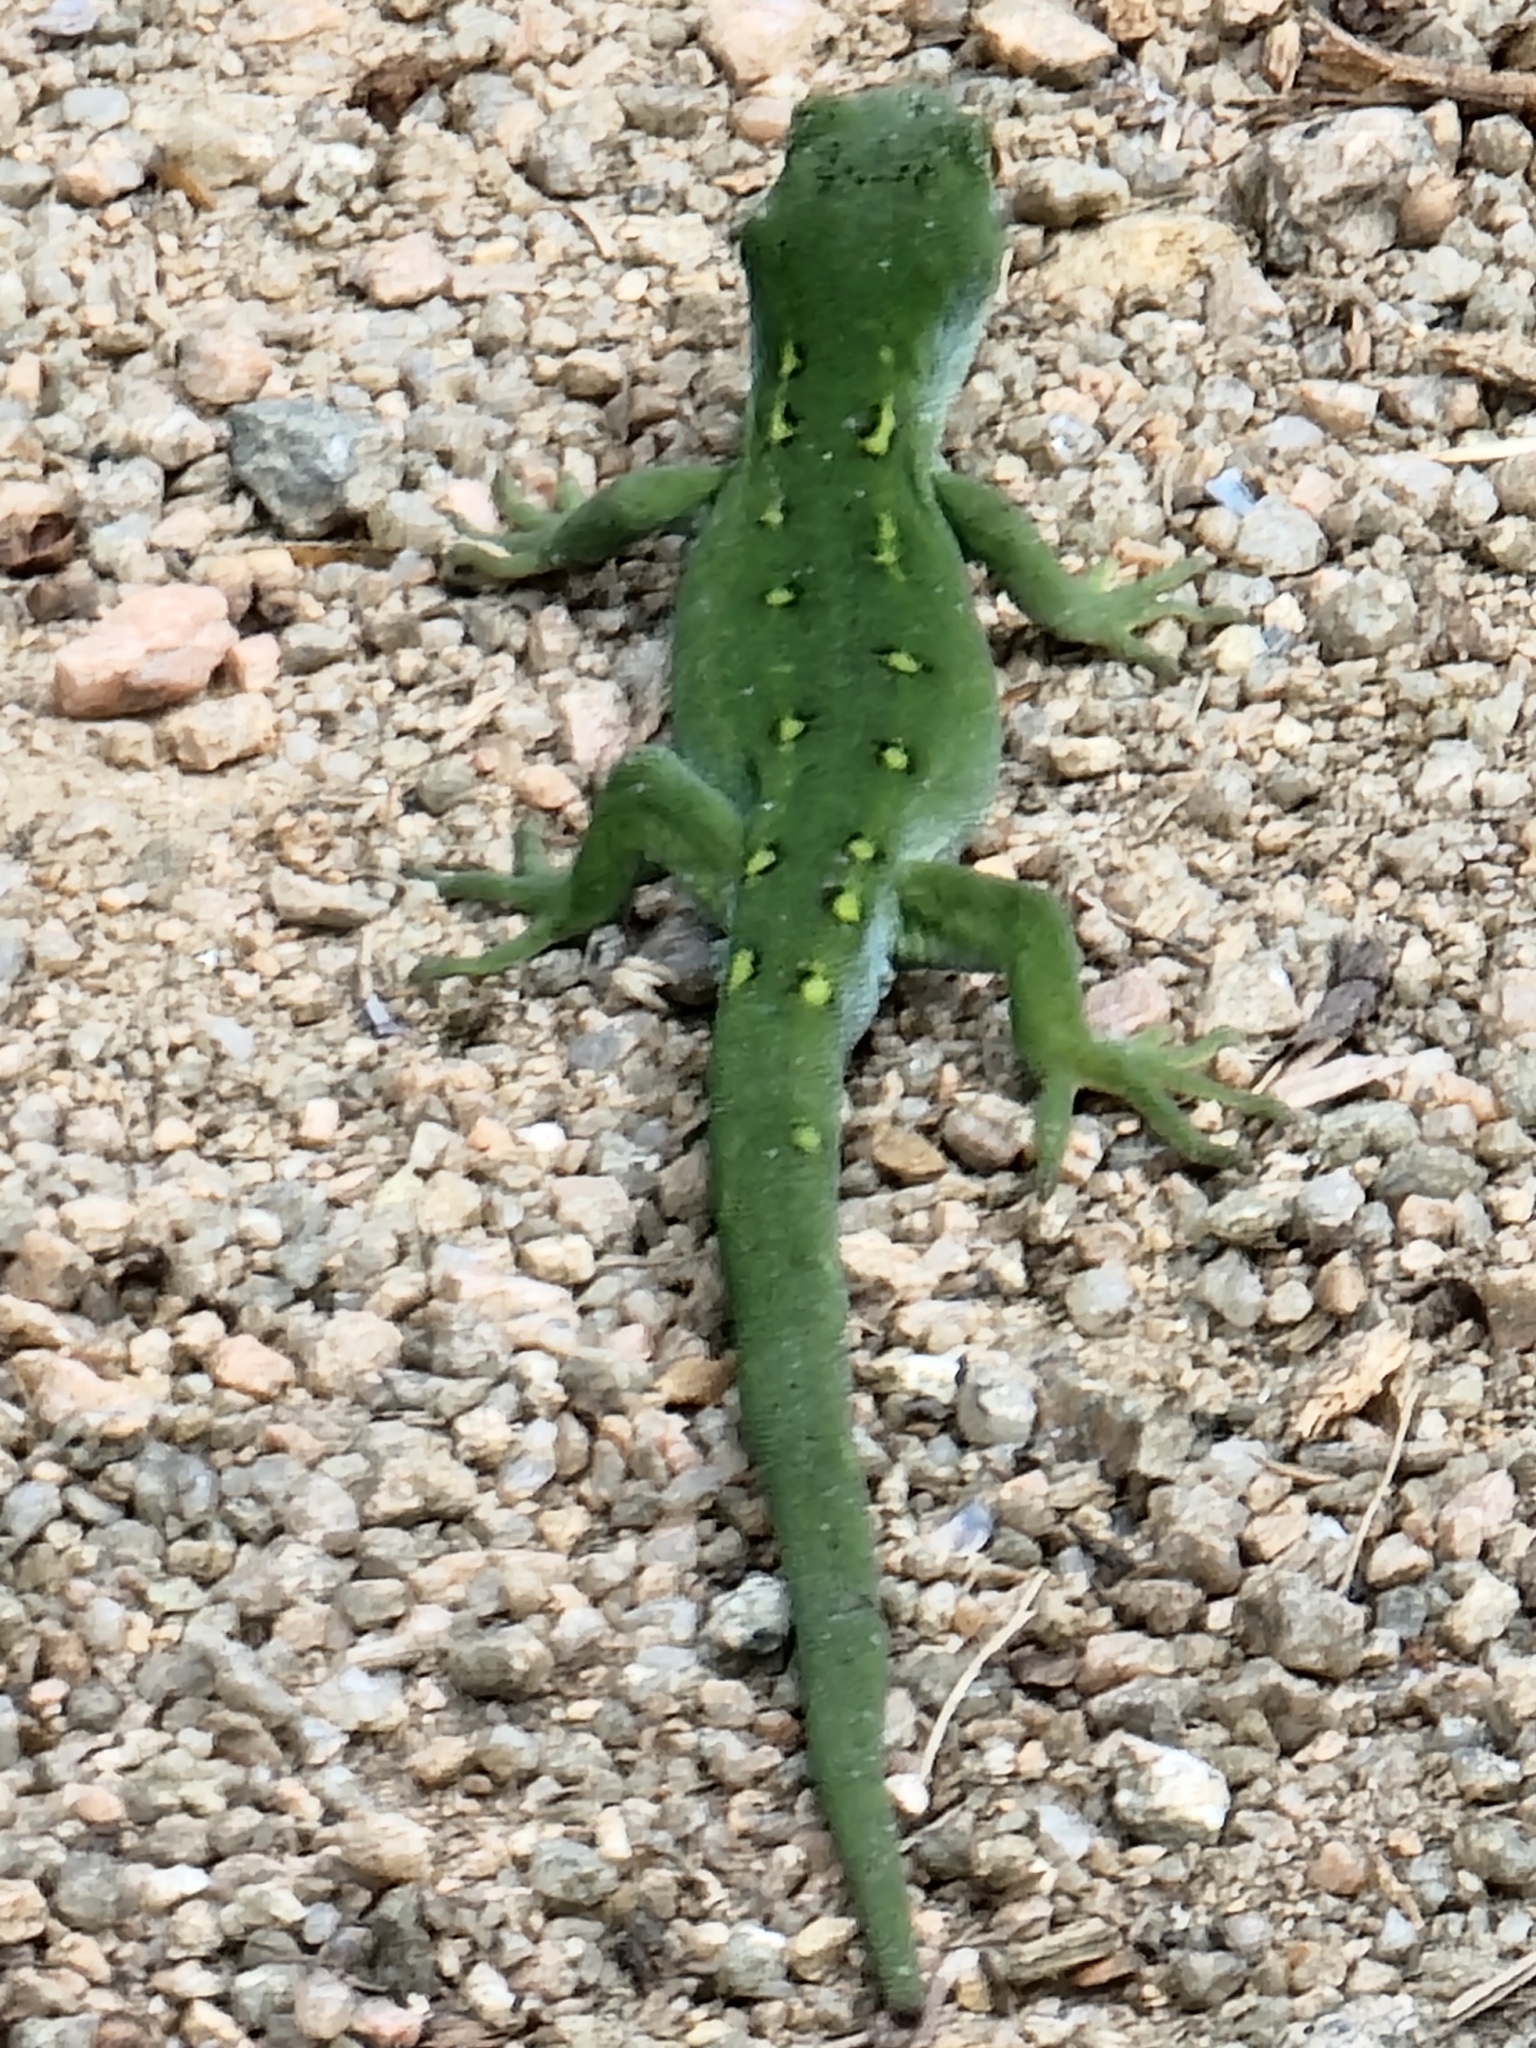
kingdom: Animalia
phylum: Chordata
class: Squamata
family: Diplodactylidae
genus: Naultinus
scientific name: Naultinus stellatus
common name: Nelson green gecko
